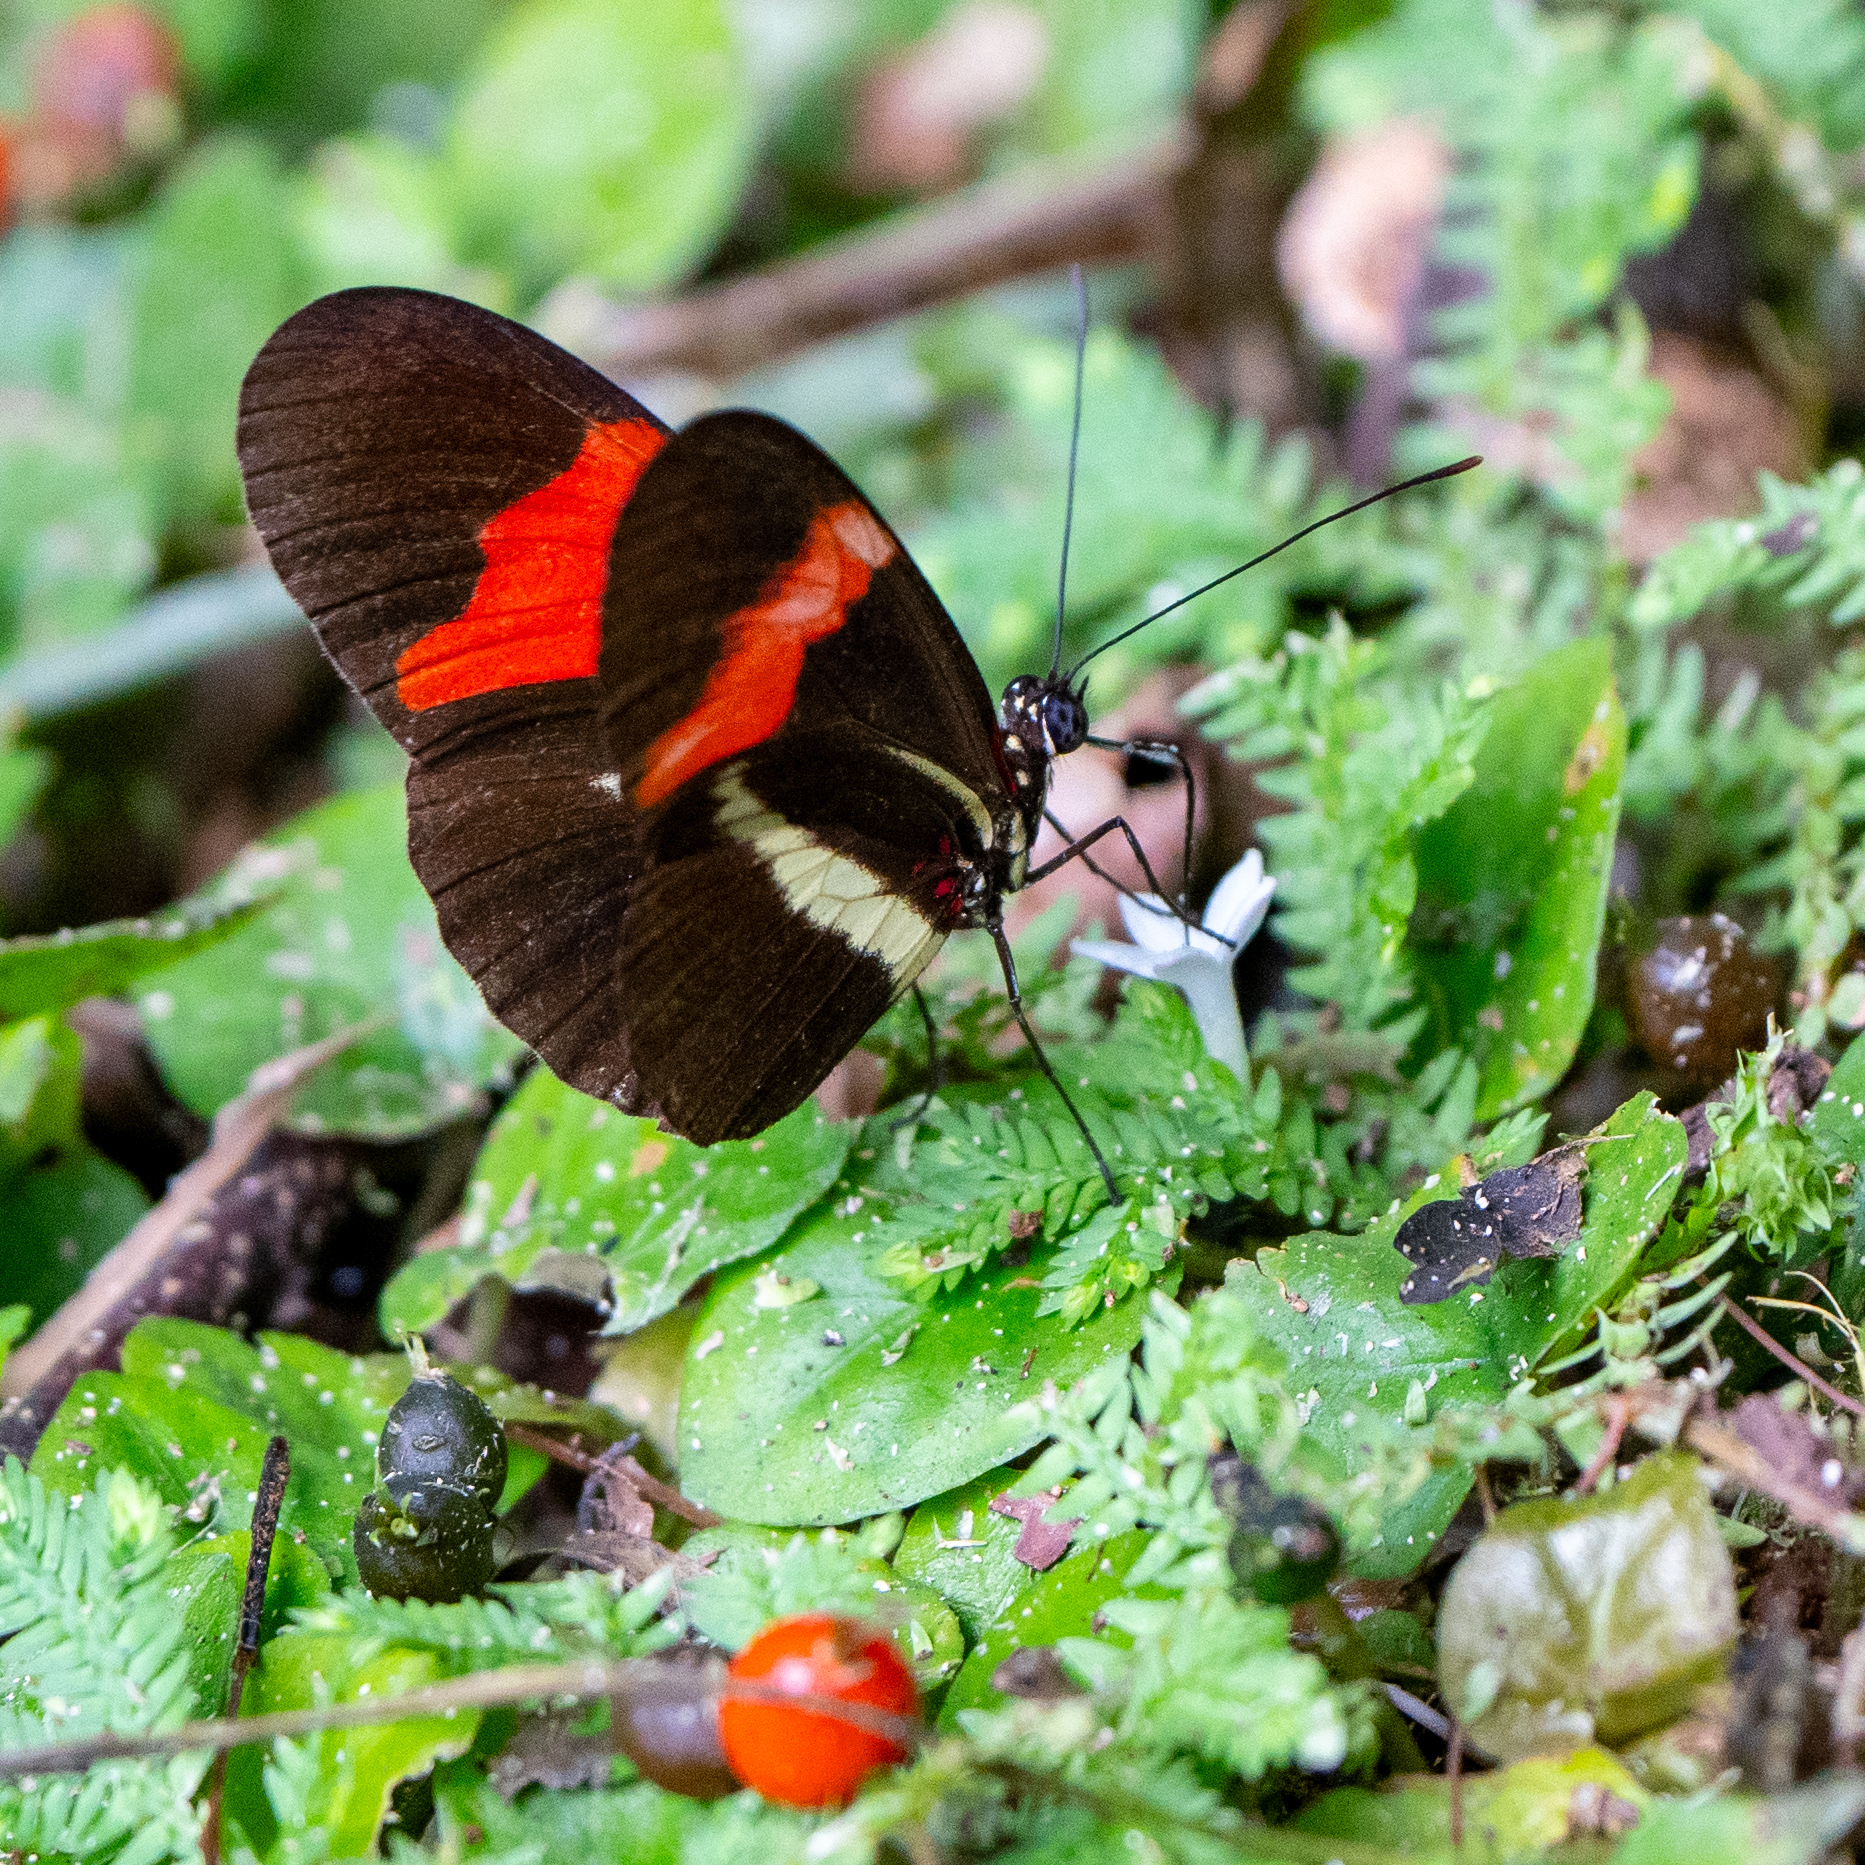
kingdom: Animalia
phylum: Arthropoda
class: Insecta
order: Lepidoptera
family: Nymphalidae
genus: Tirumala
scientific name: Tirumala petiverana
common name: Blue monarch
